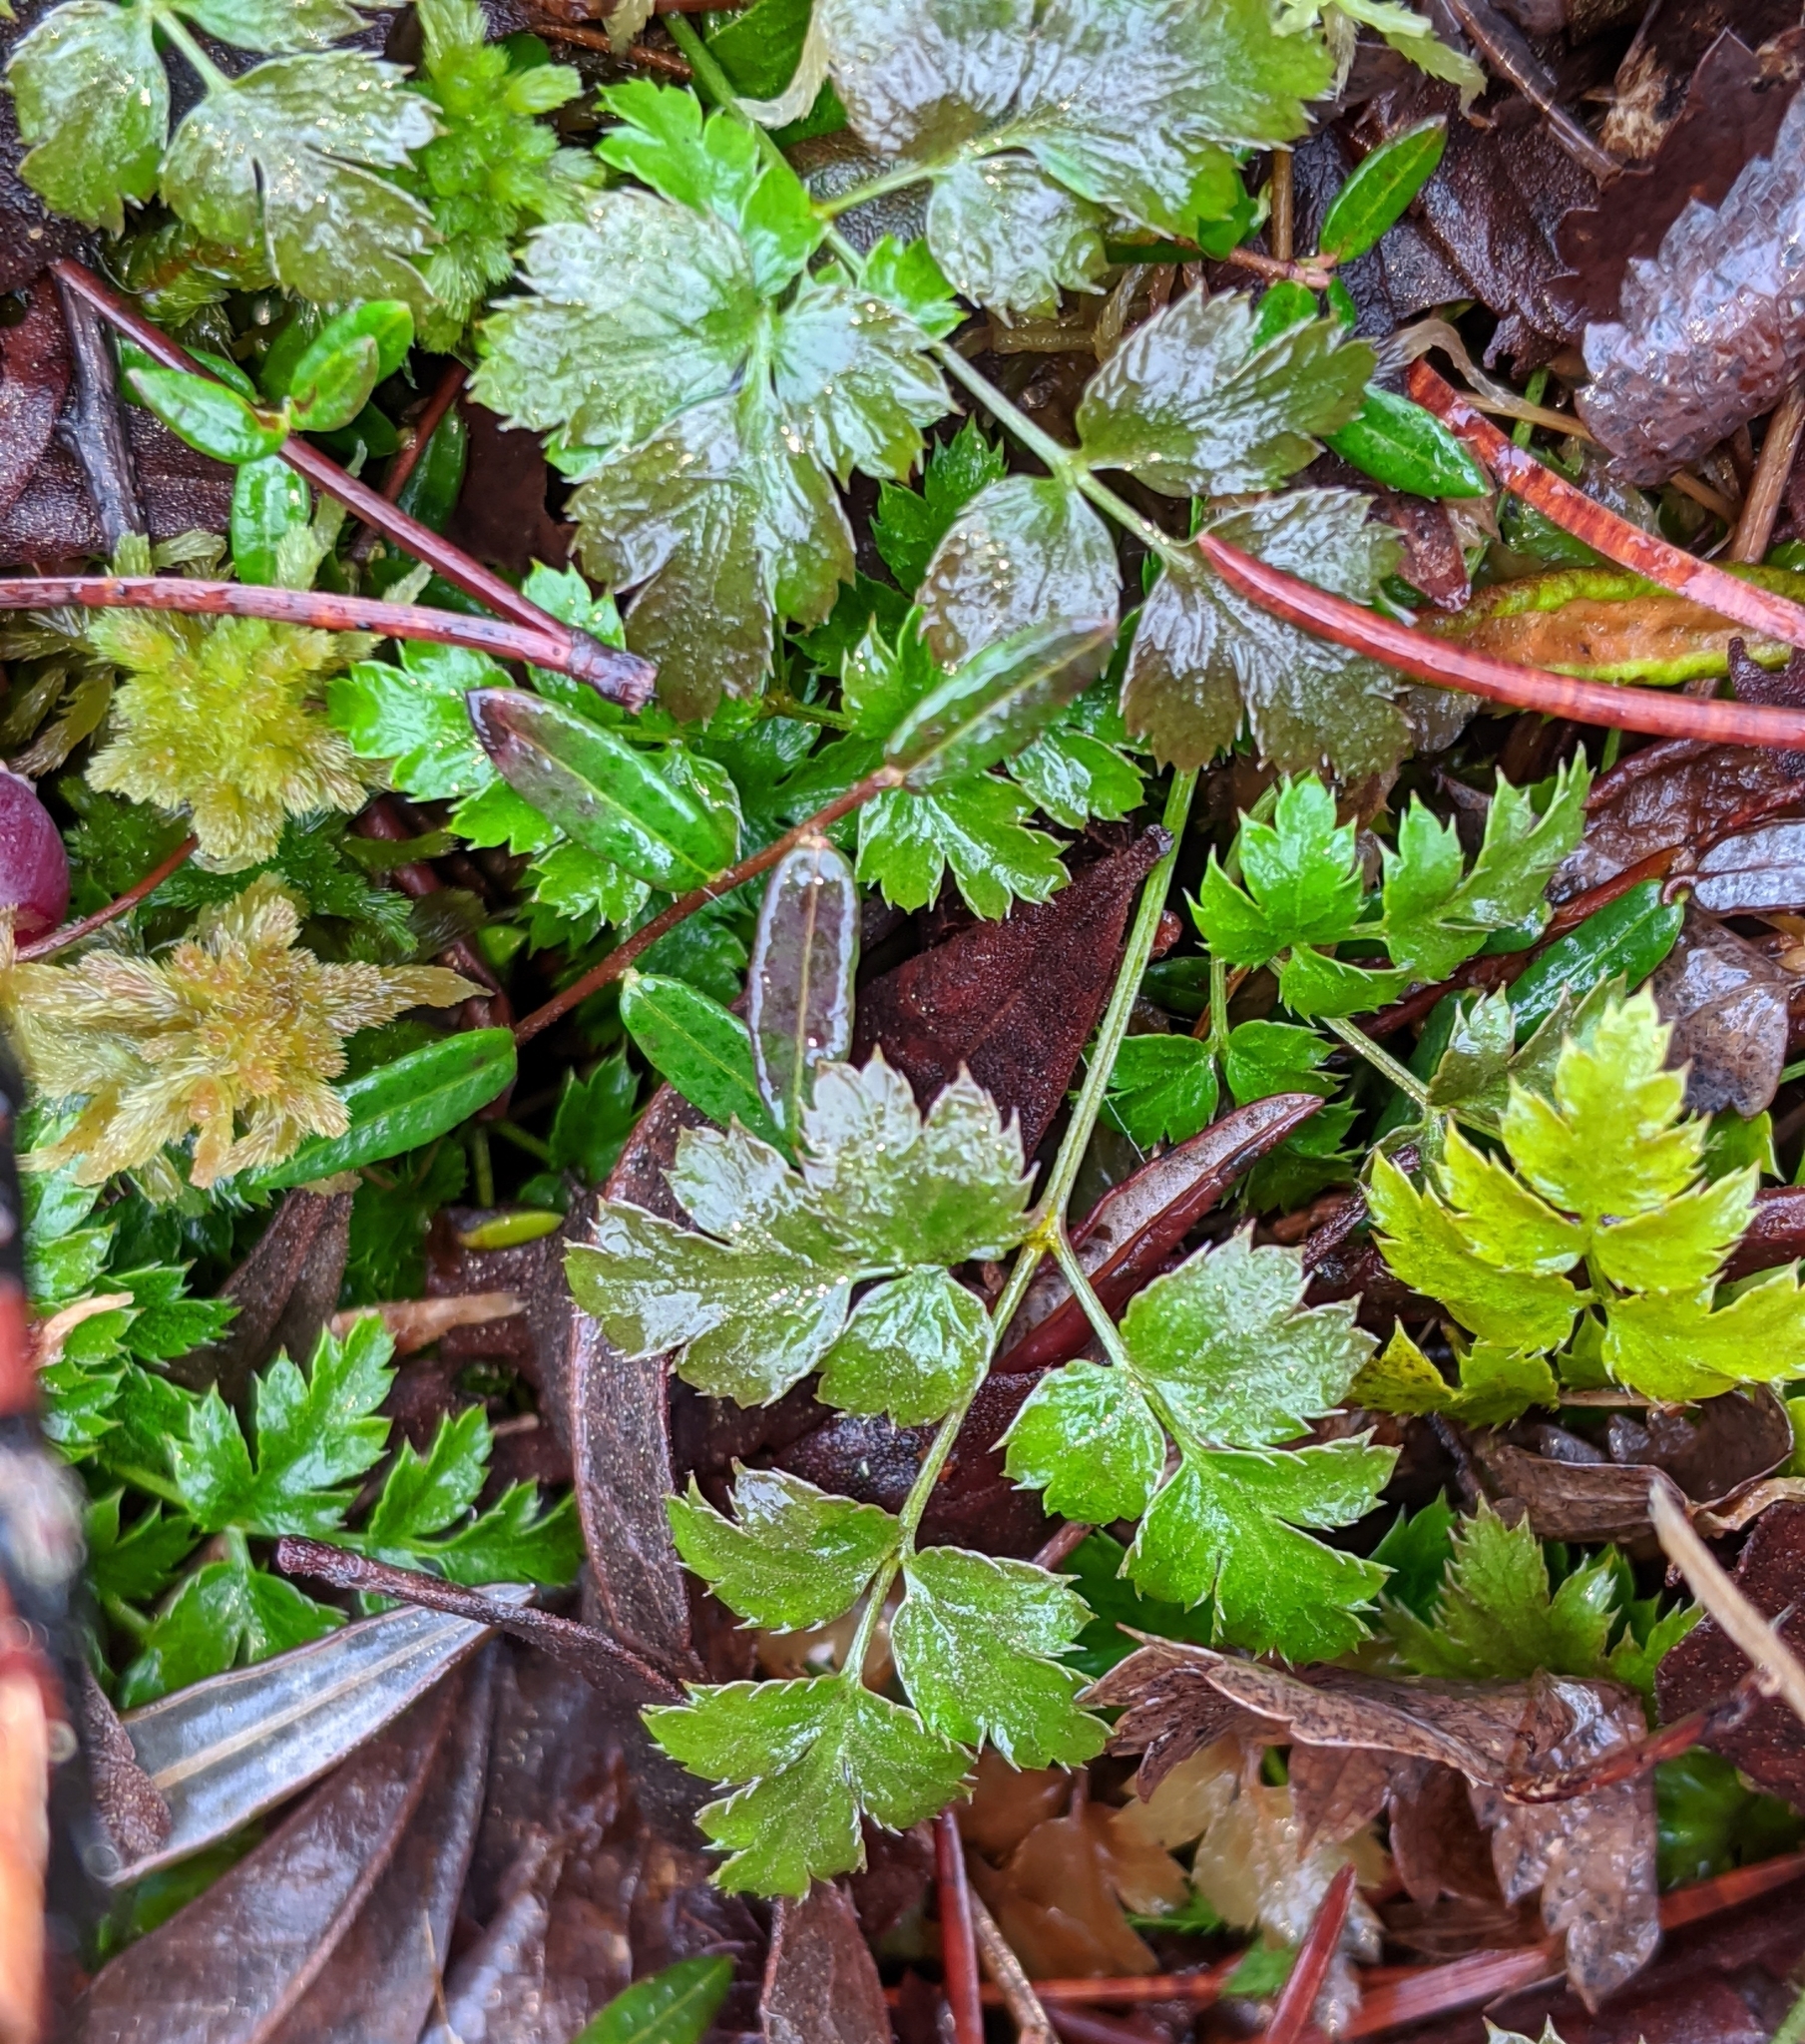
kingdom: Plantae
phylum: Tracheophyta
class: Magnoliopsida
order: Ranunculales
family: Ranunculaceae
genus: Coptis
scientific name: Coptis aspleniifolia
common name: Fern-leaved goldthread
